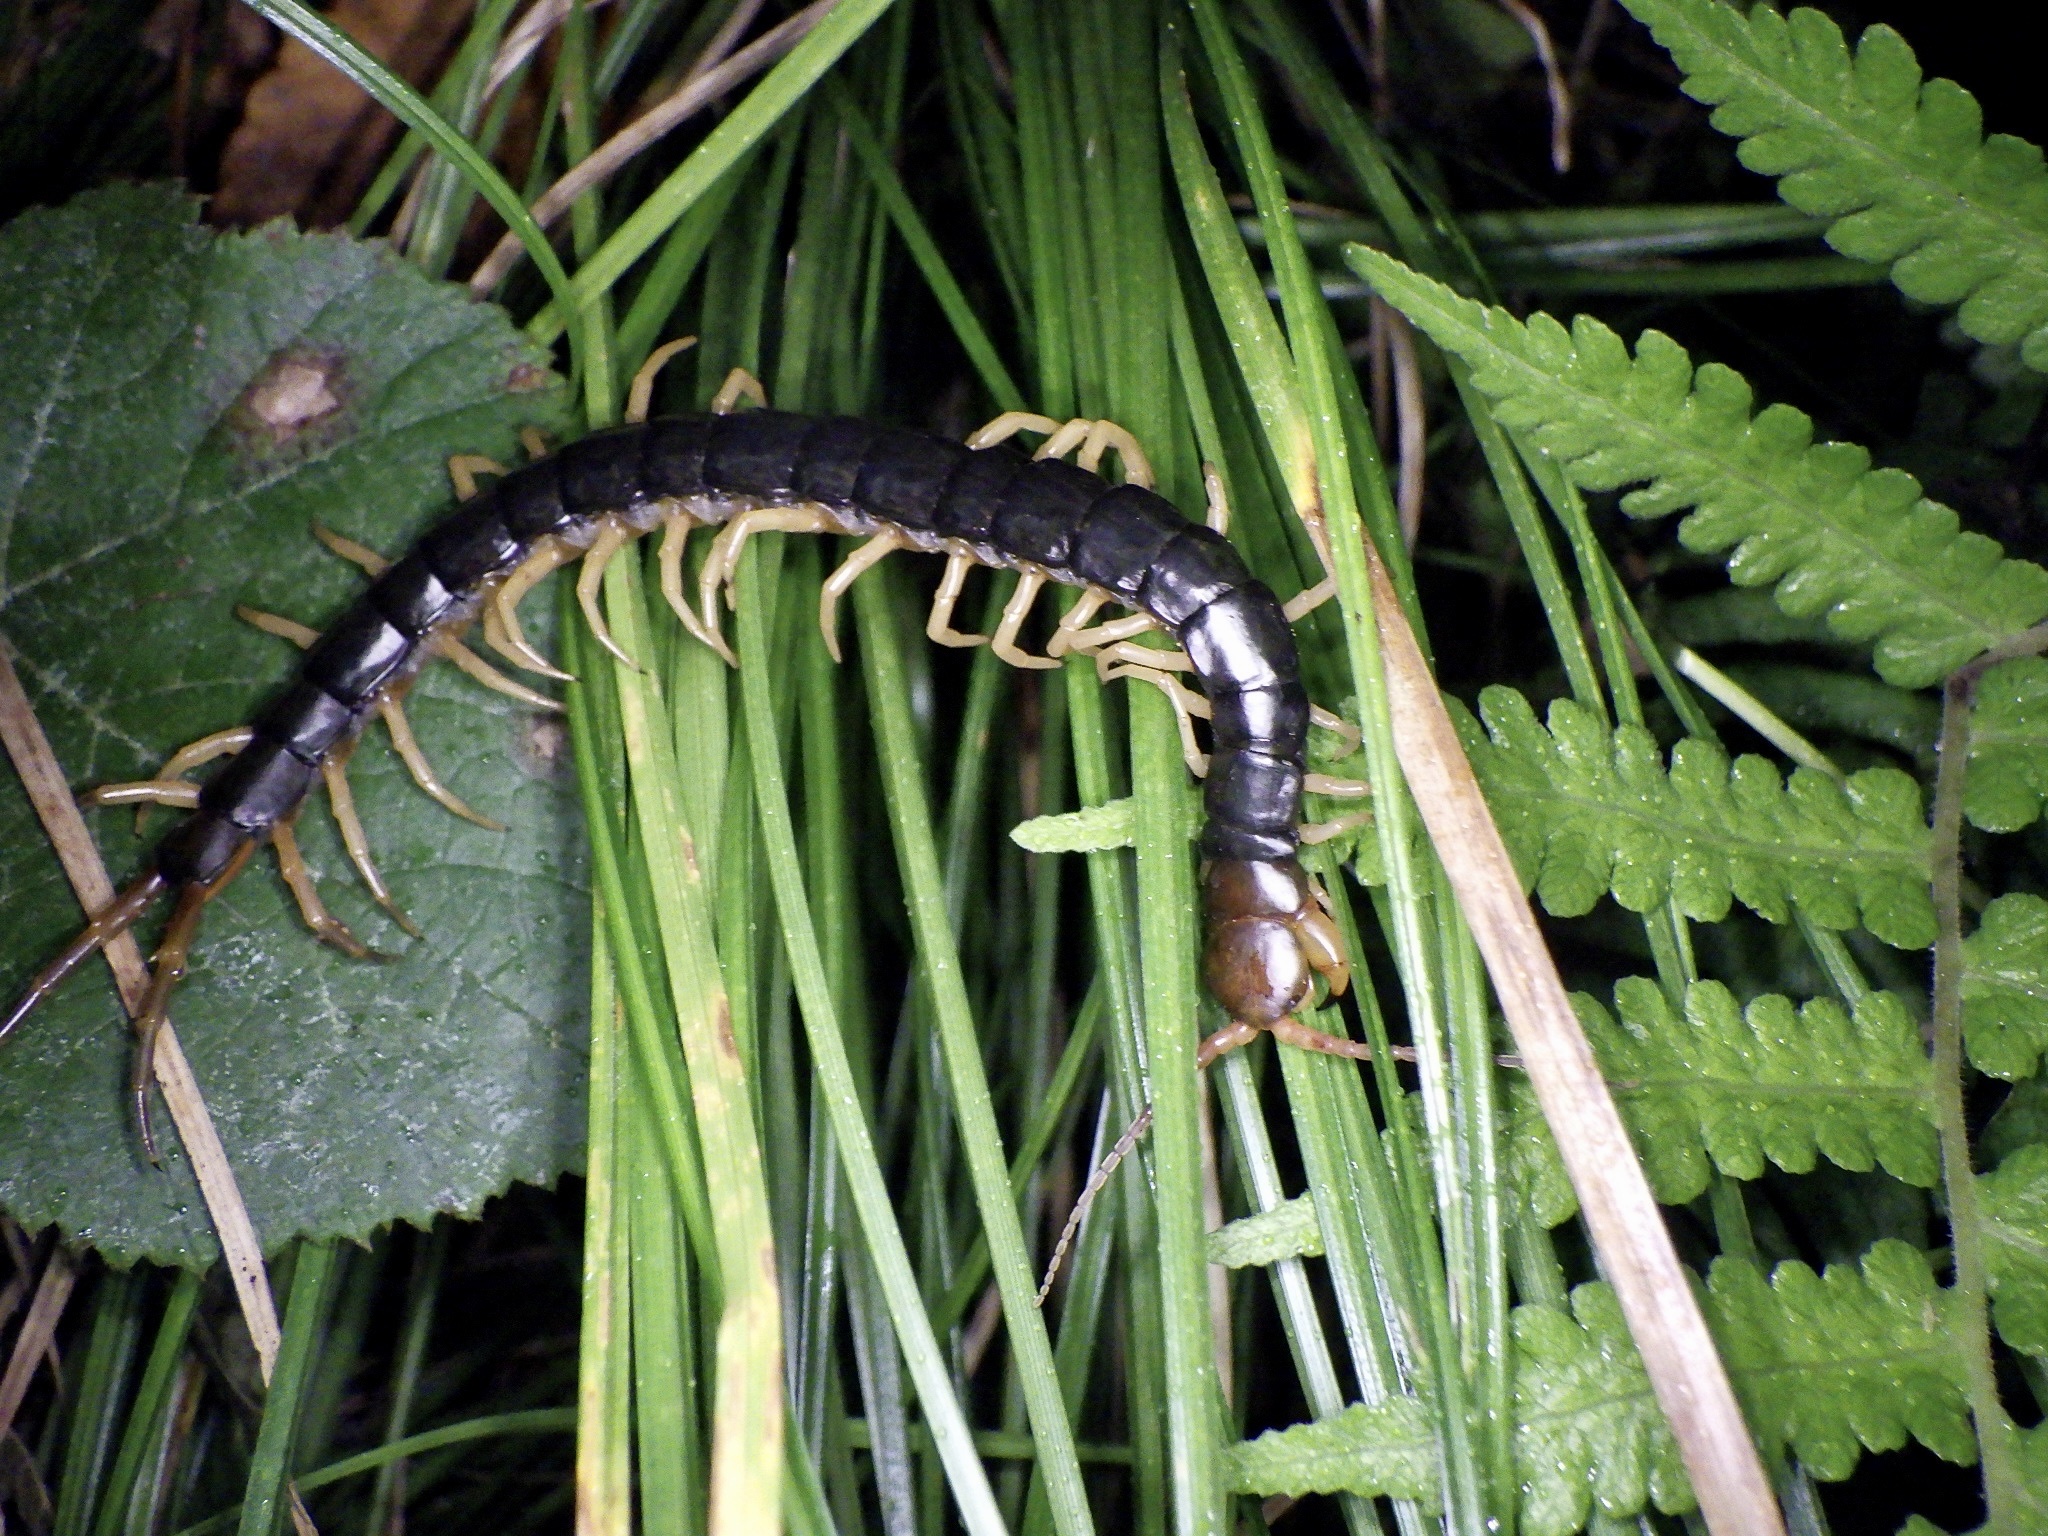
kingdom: Animalia
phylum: Arthropoda
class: Chilopoda
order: Scolopendromorpha
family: Scolopendridae
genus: Scolopendra
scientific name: Scolopendra mutilans
